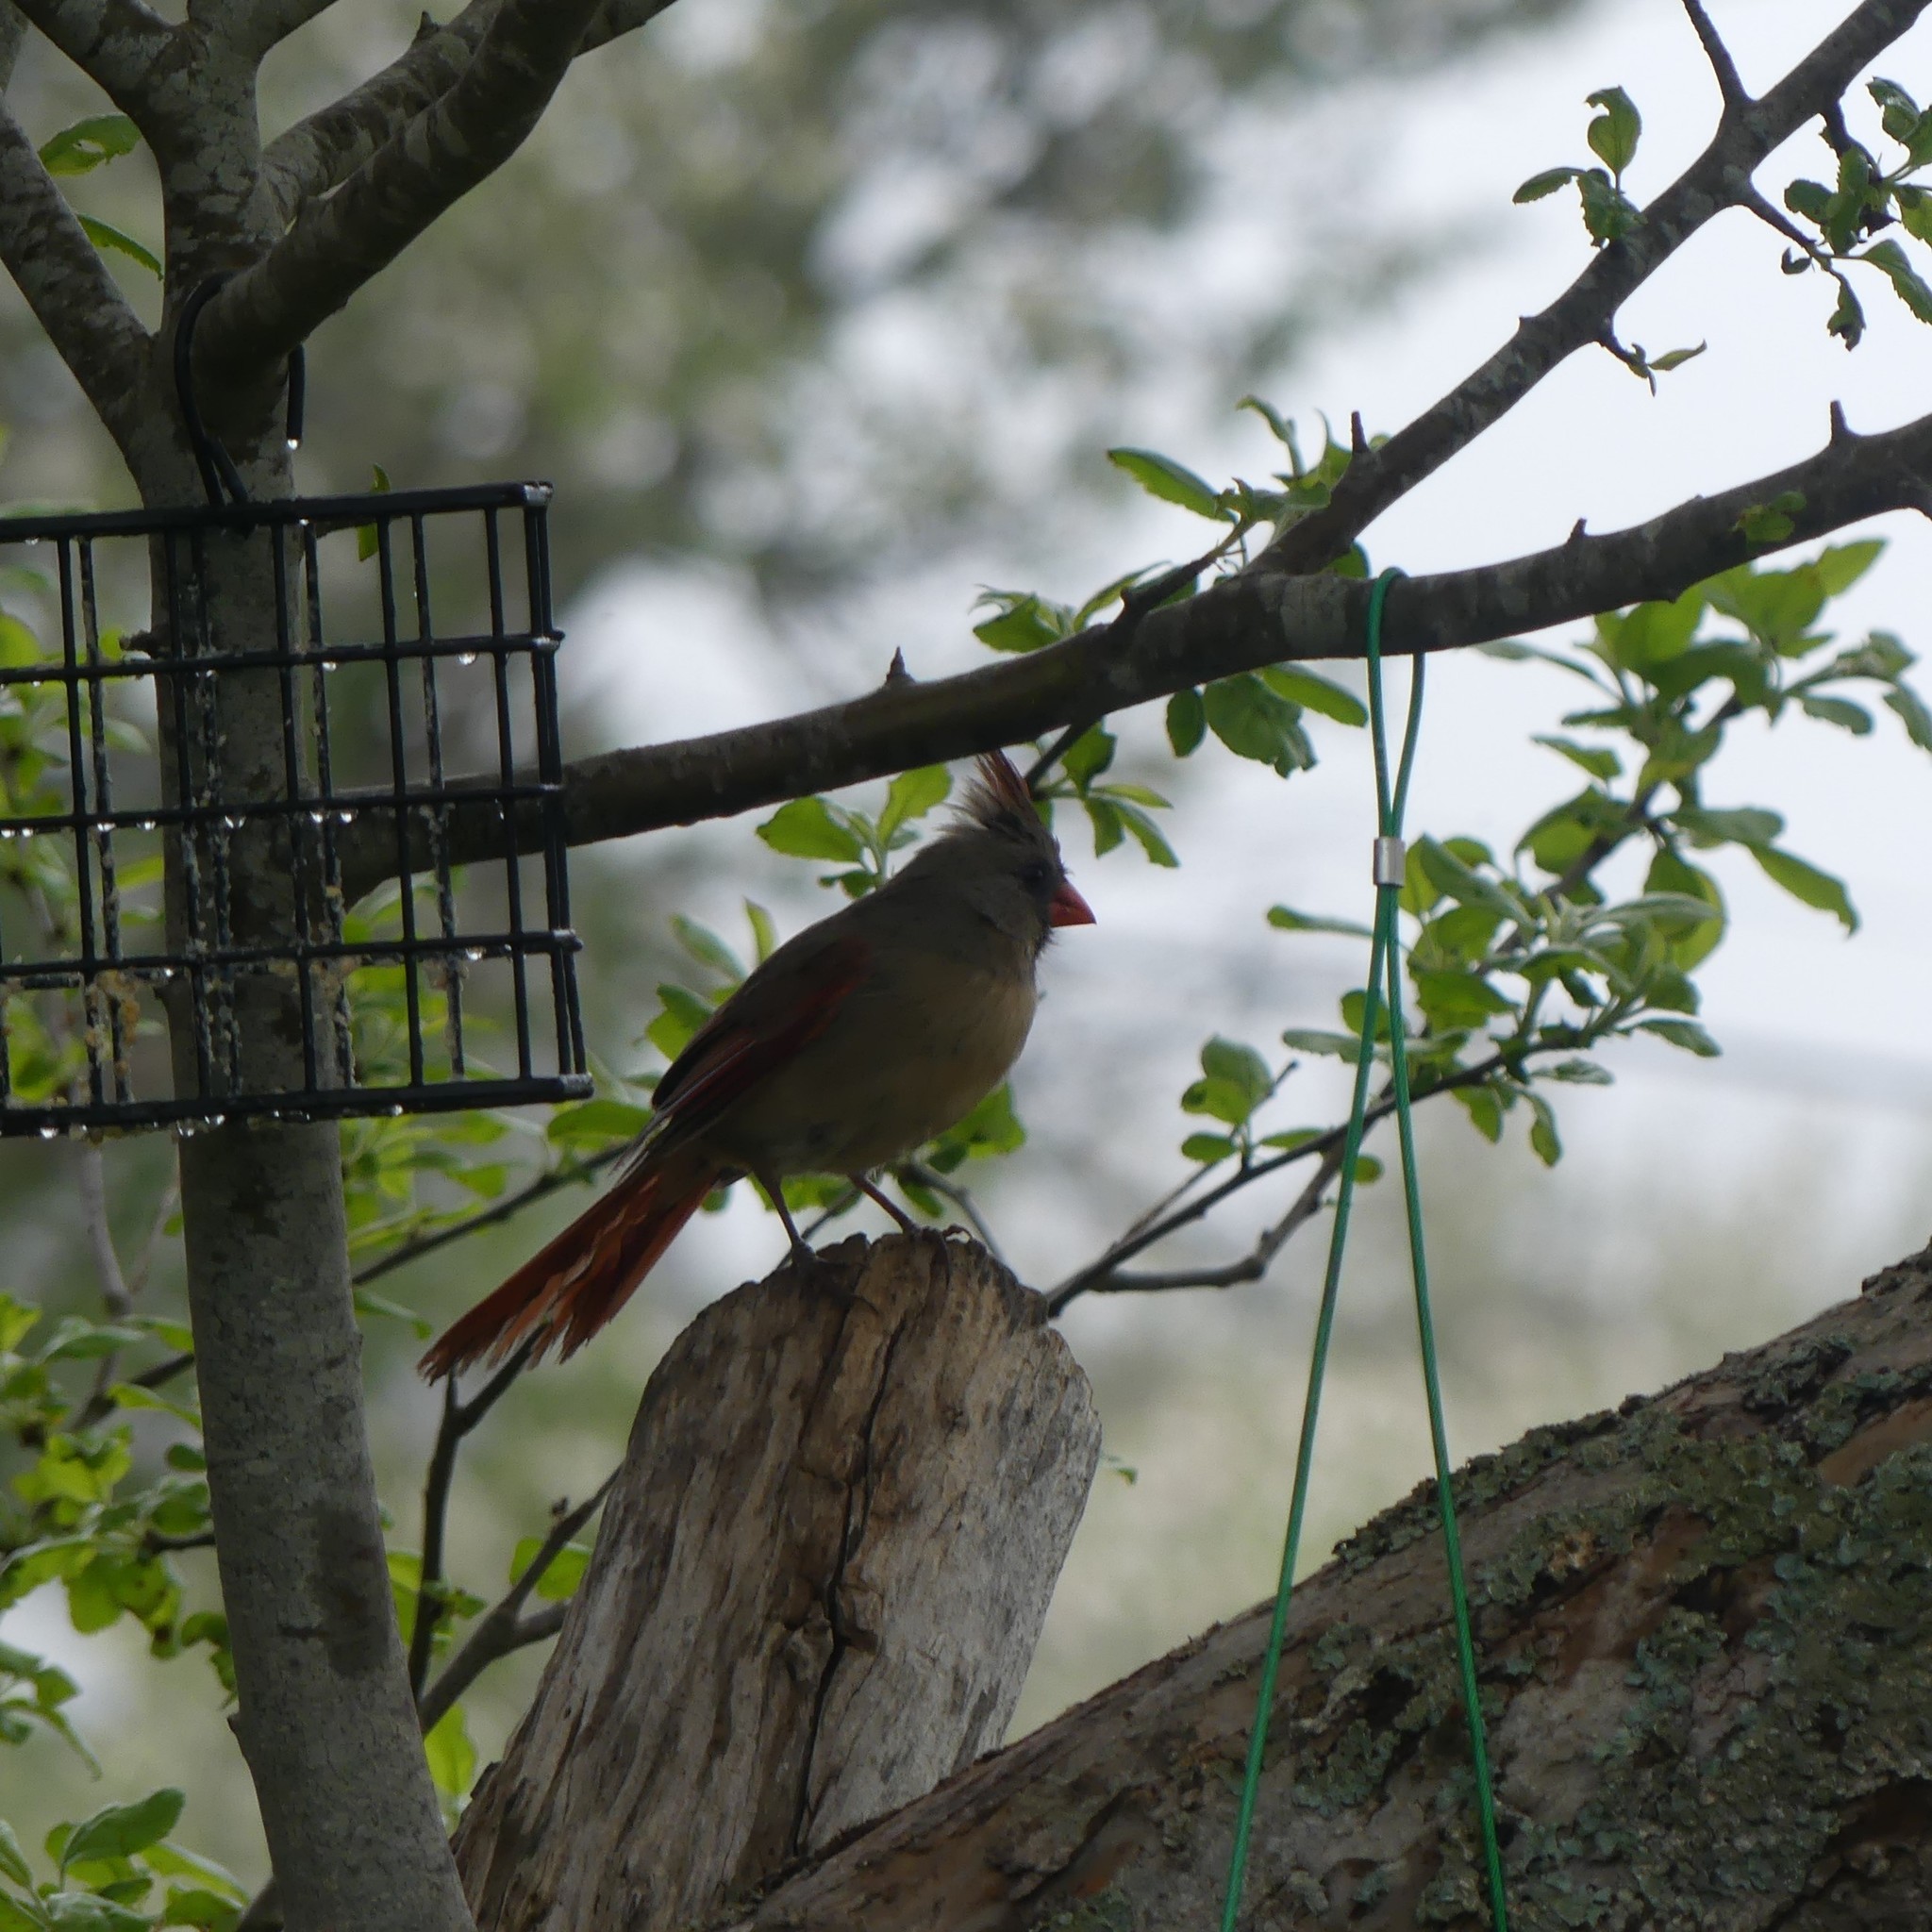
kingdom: Animalia
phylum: Chordata
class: Aves
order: Passeriformes
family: Cardinalidae
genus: Cardinalis
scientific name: Cardinalis cardinalis
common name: Northern cardinal
